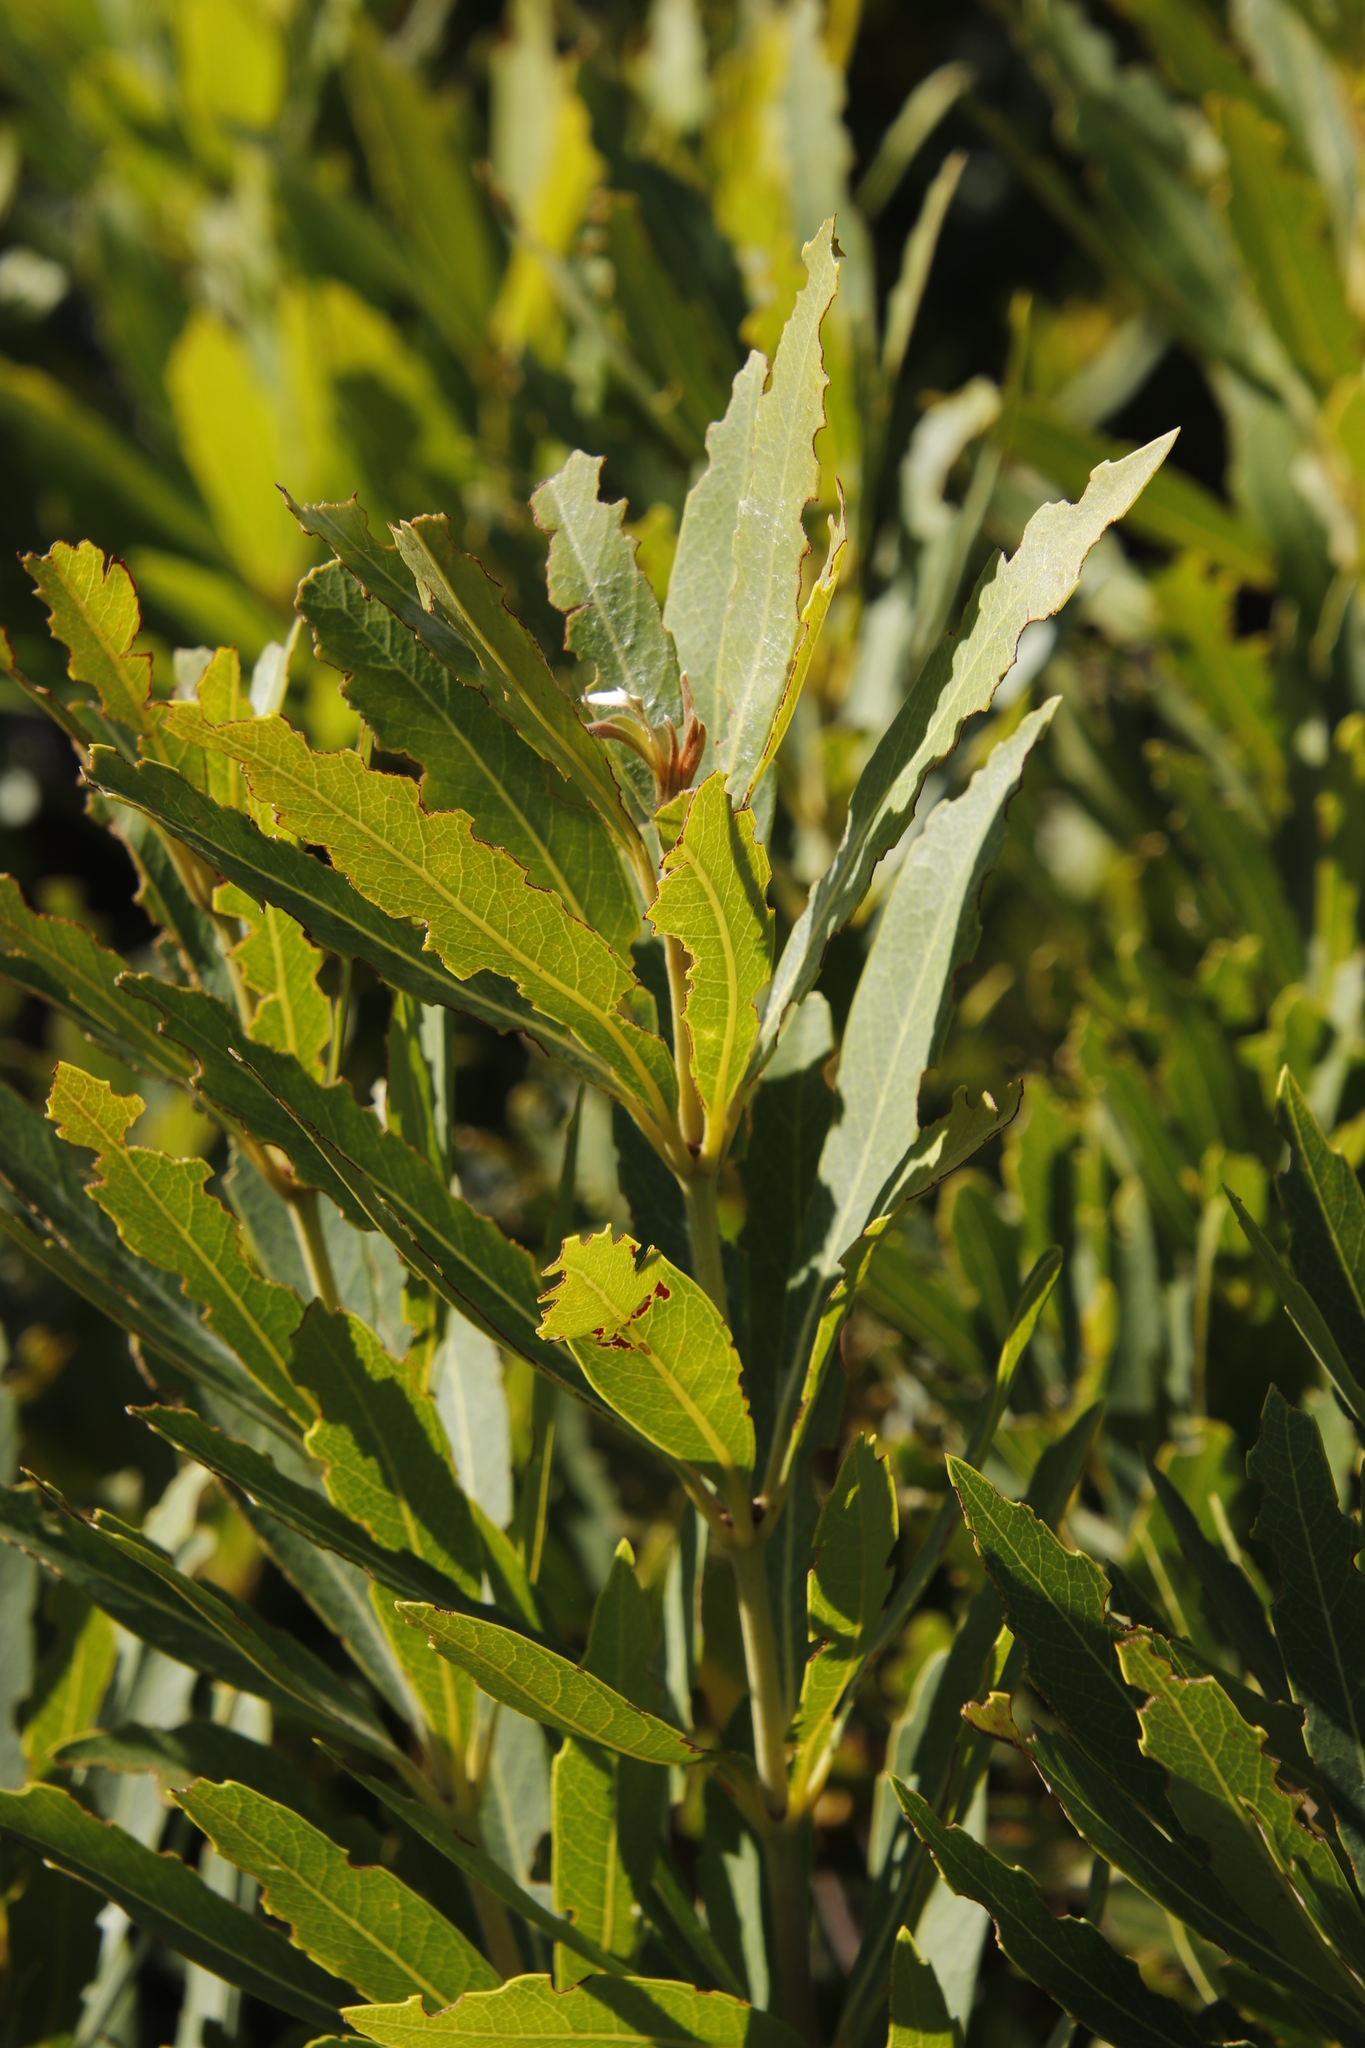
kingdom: Plantae
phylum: Tracheophyta
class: Magnoliopsida
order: Proteales
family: Proteaceae
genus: Brabejum
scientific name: Brabejum stellatifolium
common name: Wild almond
